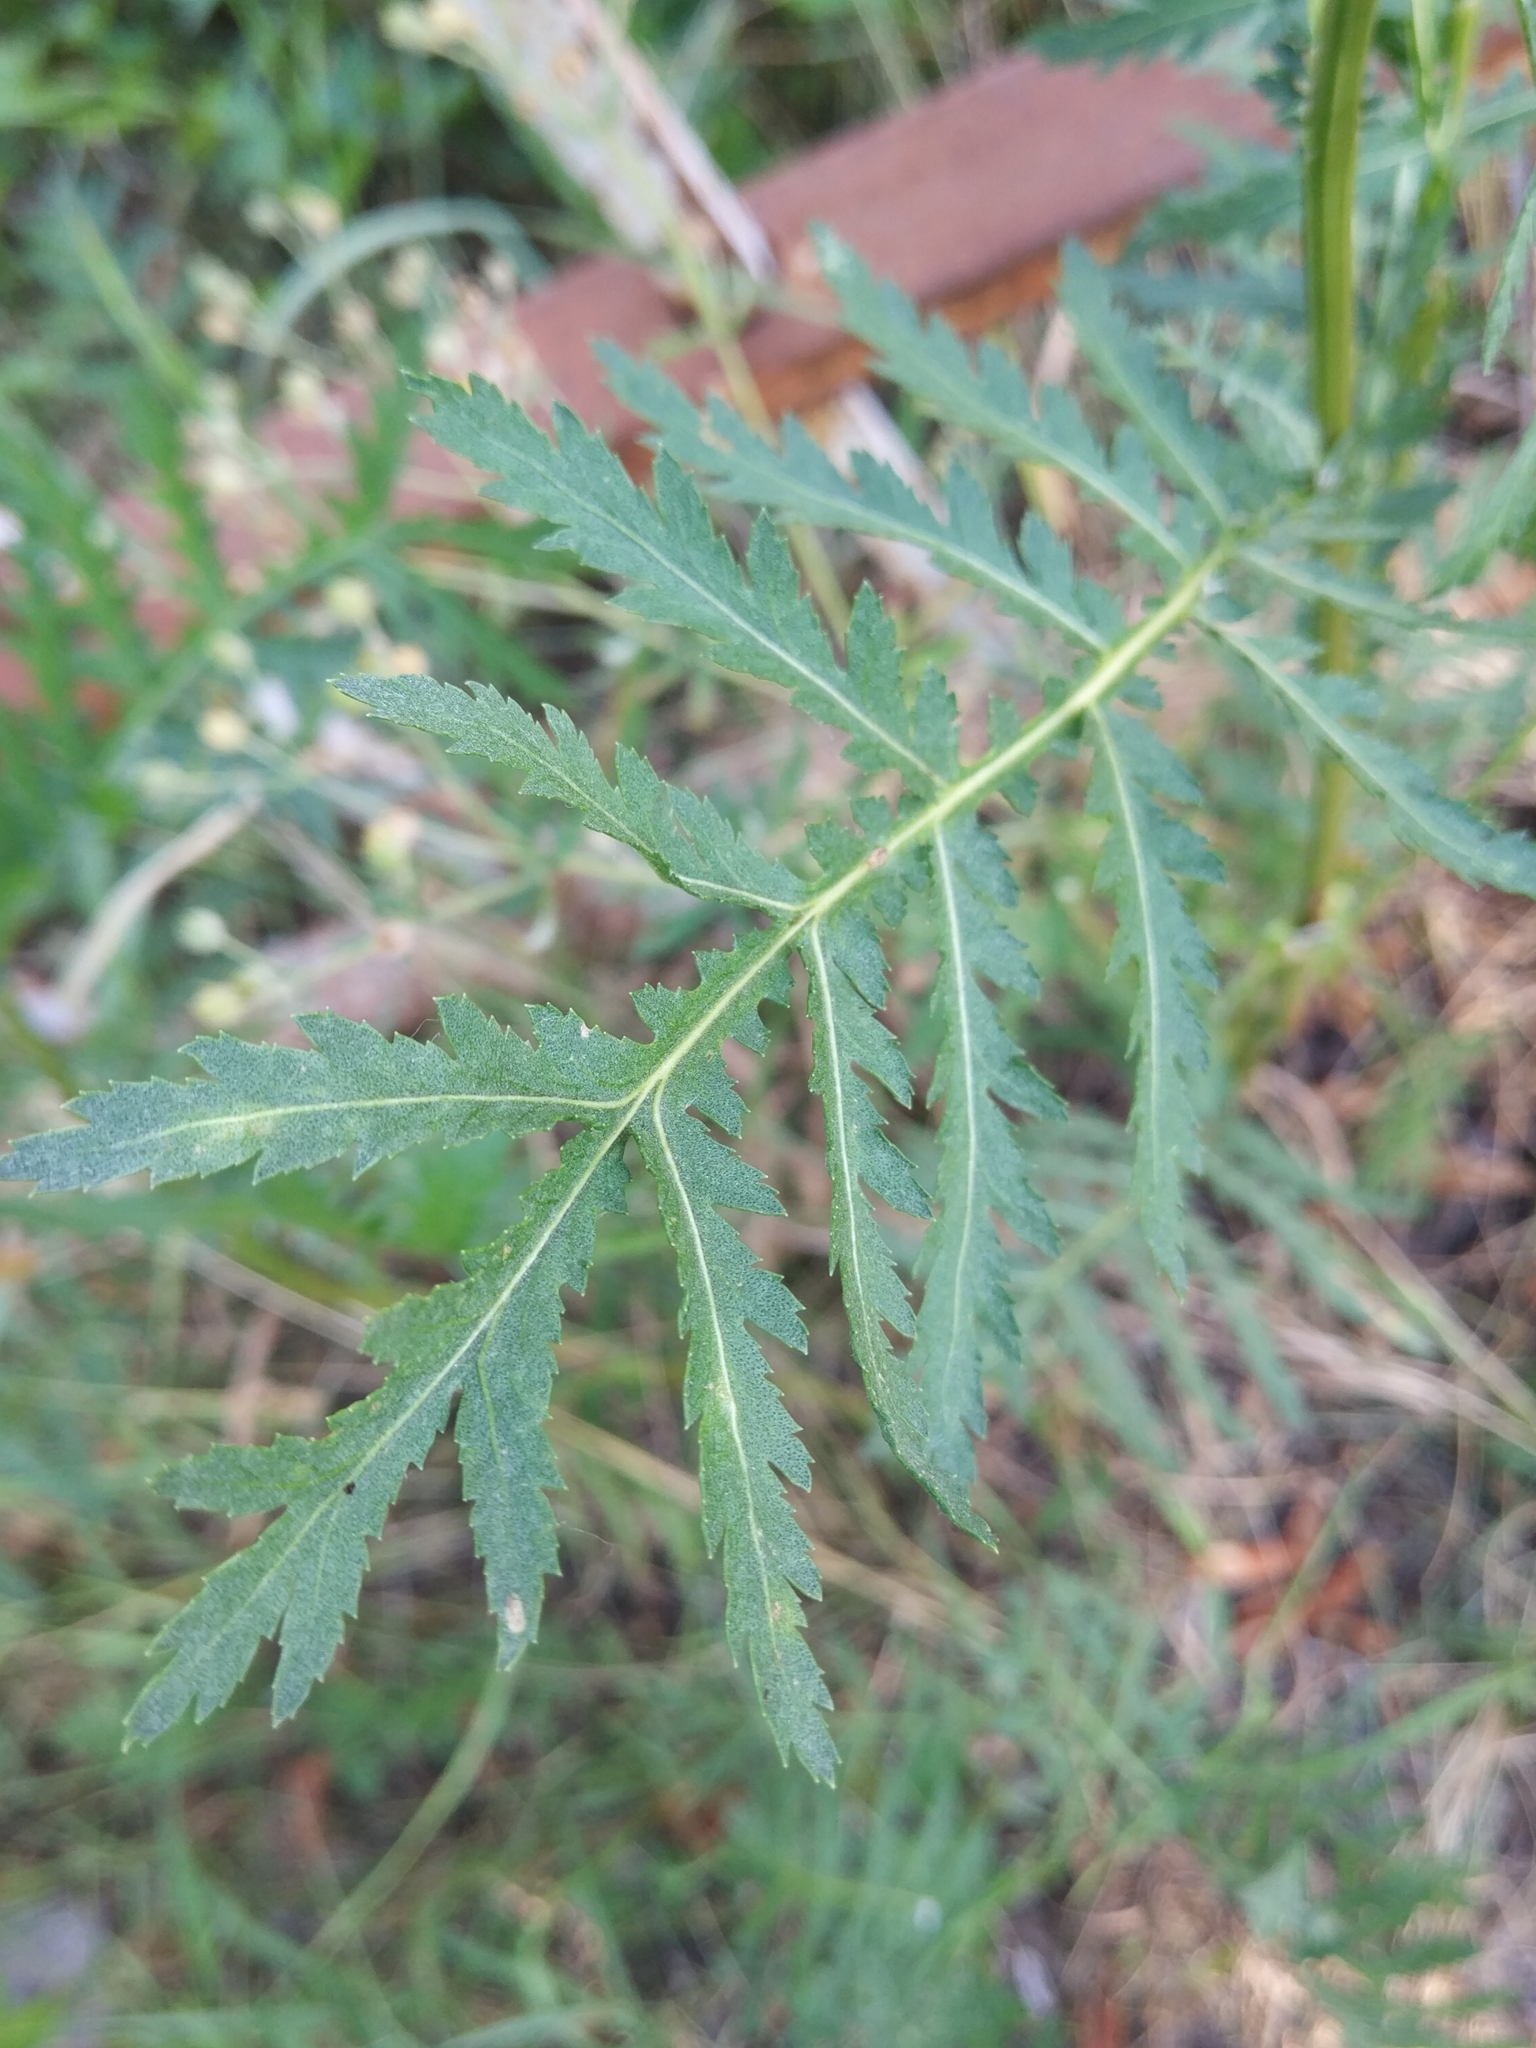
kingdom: Plantae
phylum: Tracheophyta
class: Magnoliopsida
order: Asterales
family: Asteraceae
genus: Tanacetum
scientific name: Tanacetum vulgare
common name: Common tansy
